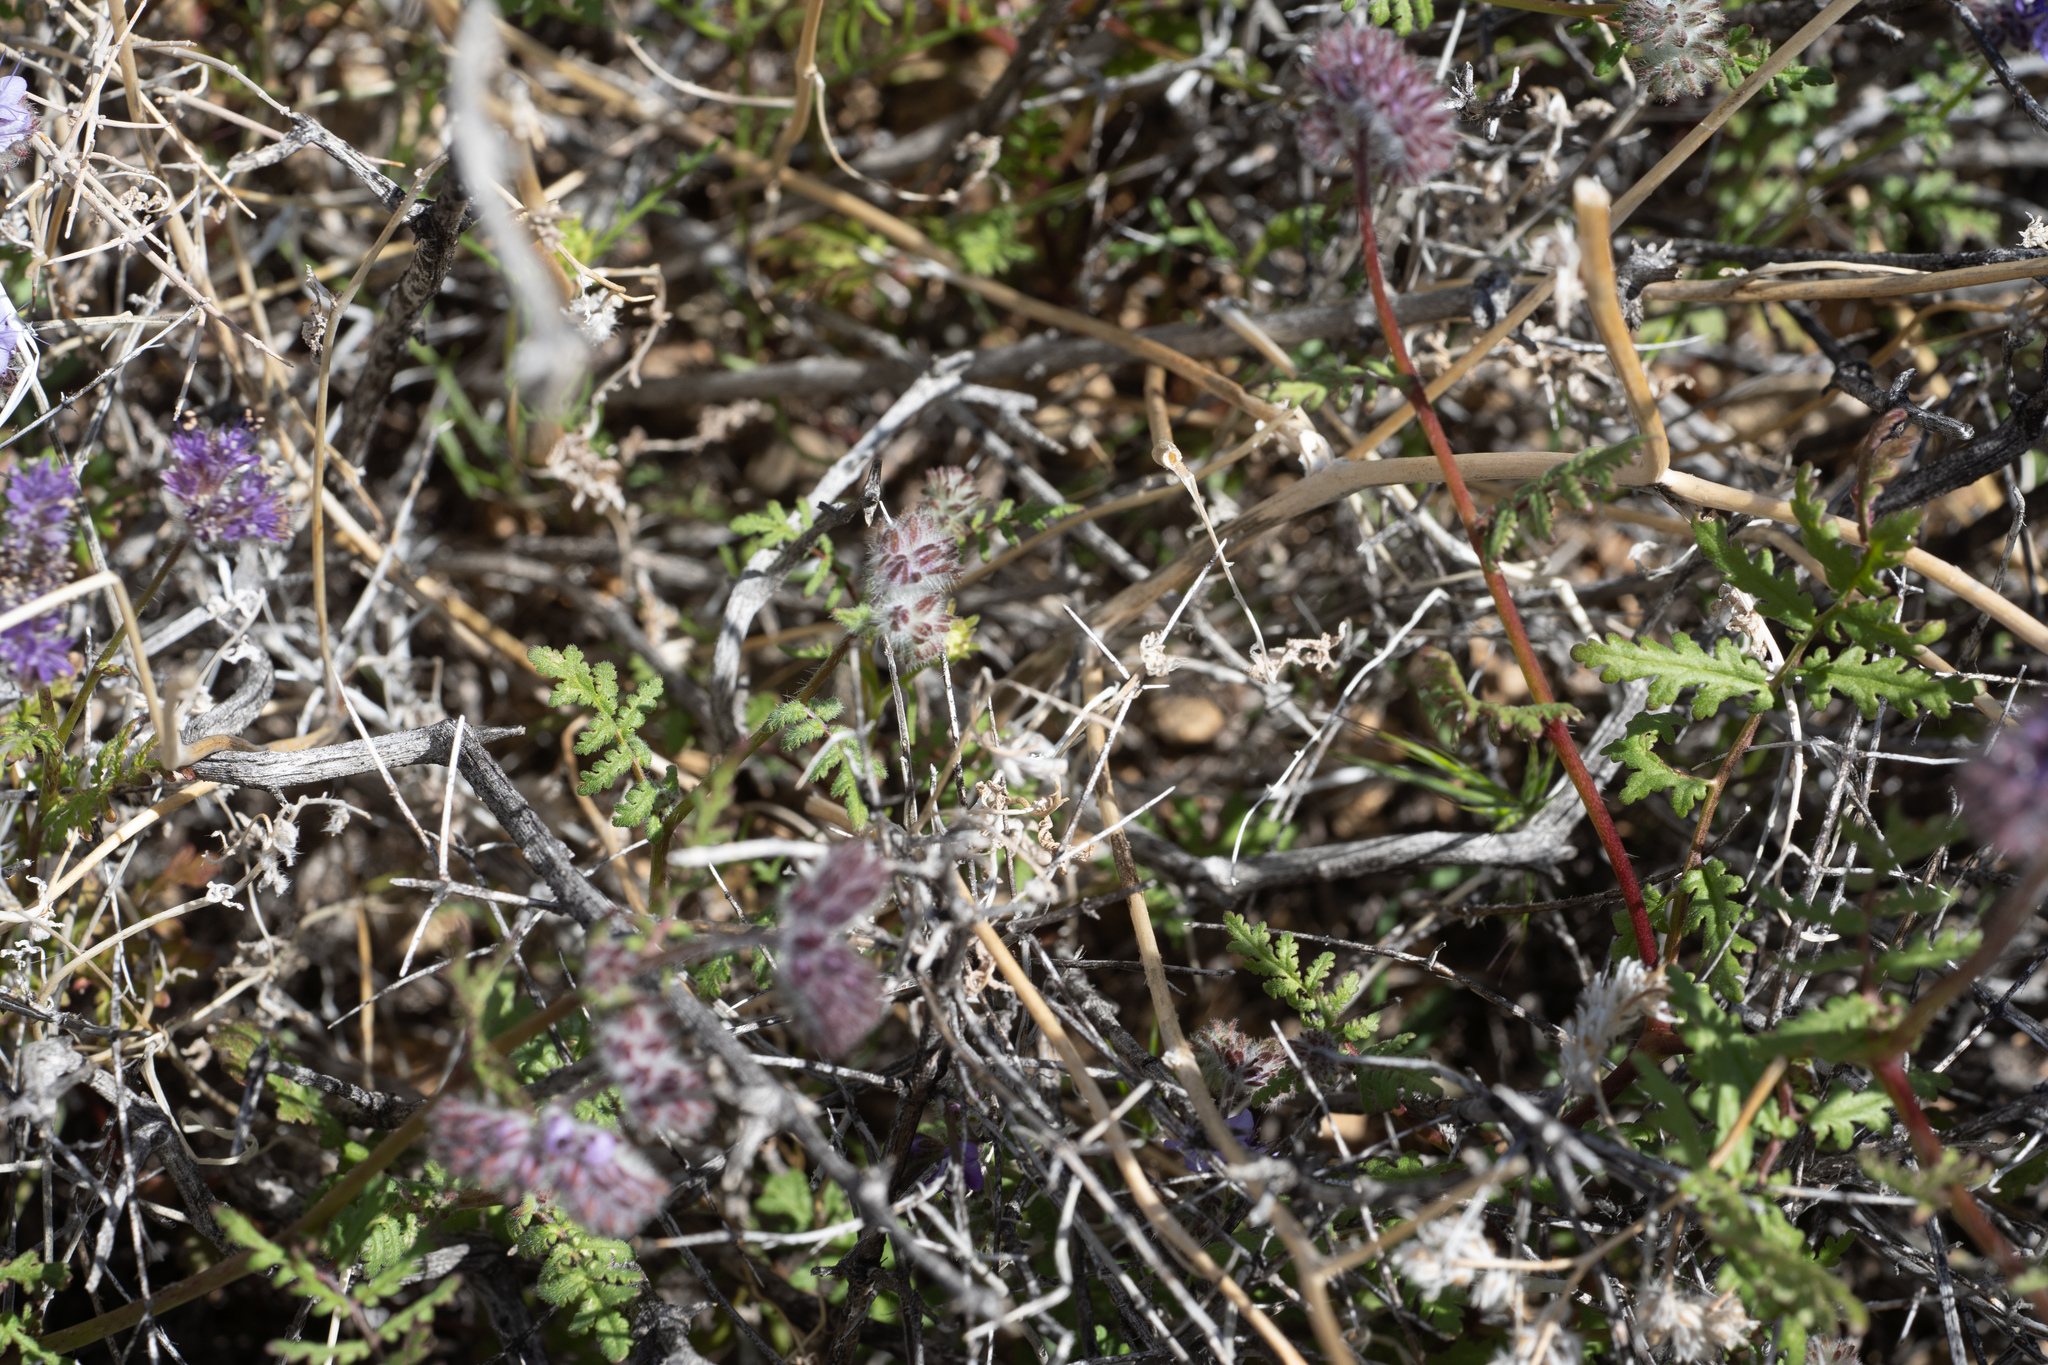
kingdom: Plantae
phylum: Tracheophyta
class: Magnoliopsida
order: Boraginales
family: Hydrophyllaceae
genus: Phacelia
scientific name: Phacelia tanacetifolia
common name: Phacelia
